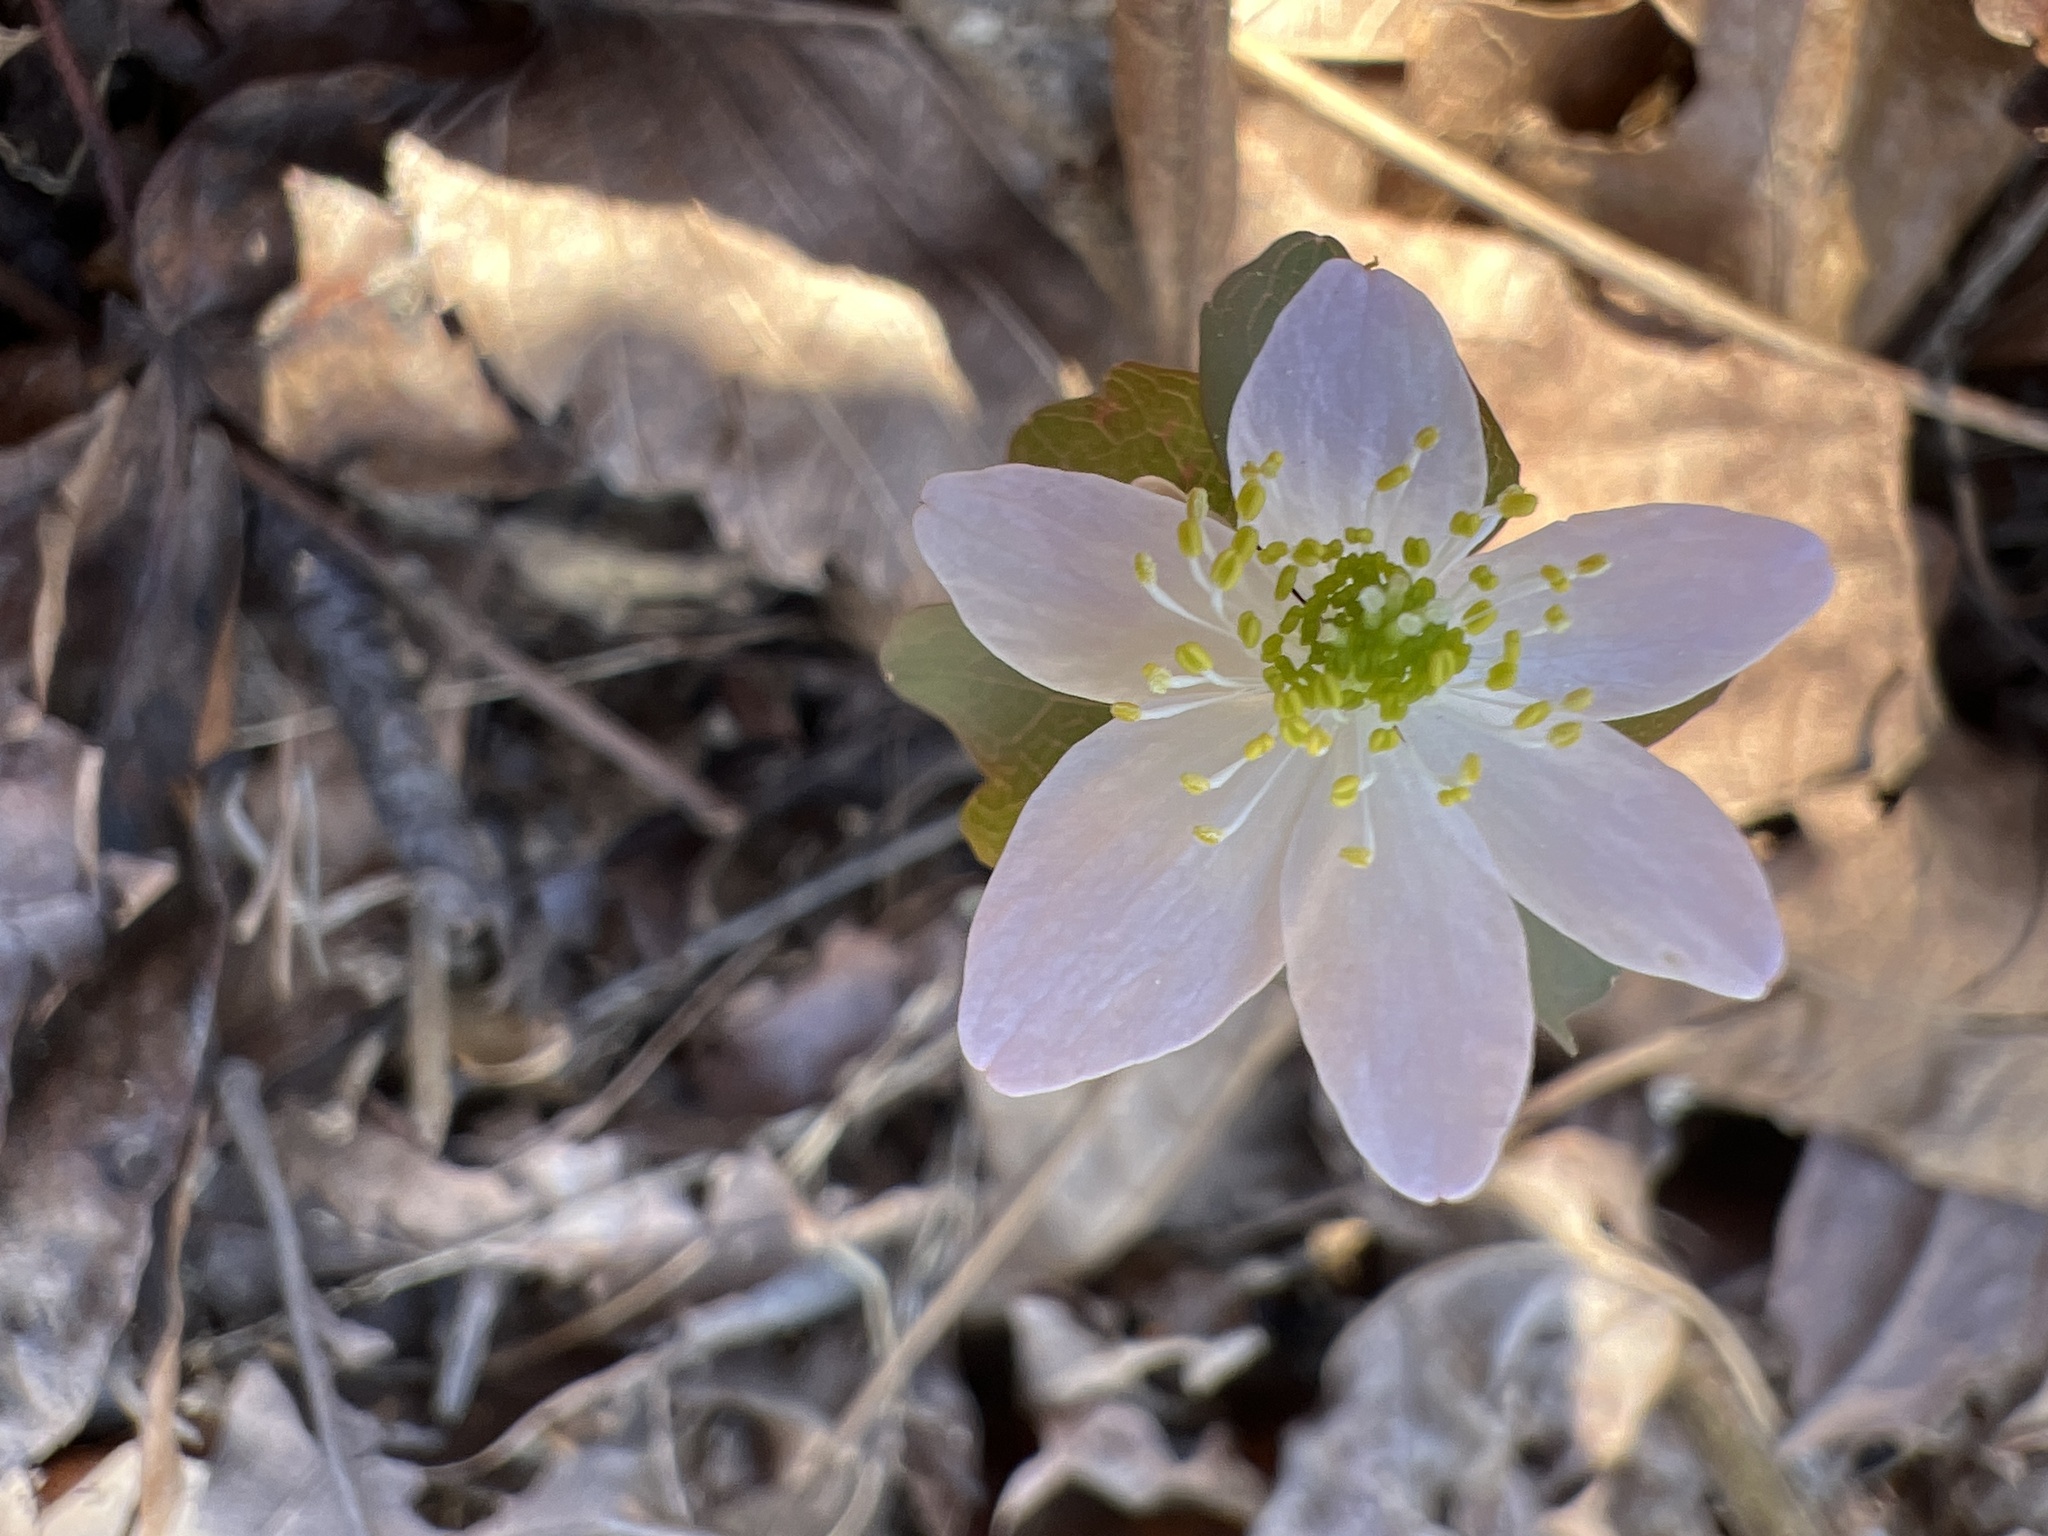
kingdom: Plantae
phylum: Tracheophyta
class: Magnoliopsida
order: Ranunculales
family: Ranunculaceae
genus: Thalictrum
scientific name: Thalictrum thalictroides
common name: Rue-anemone
